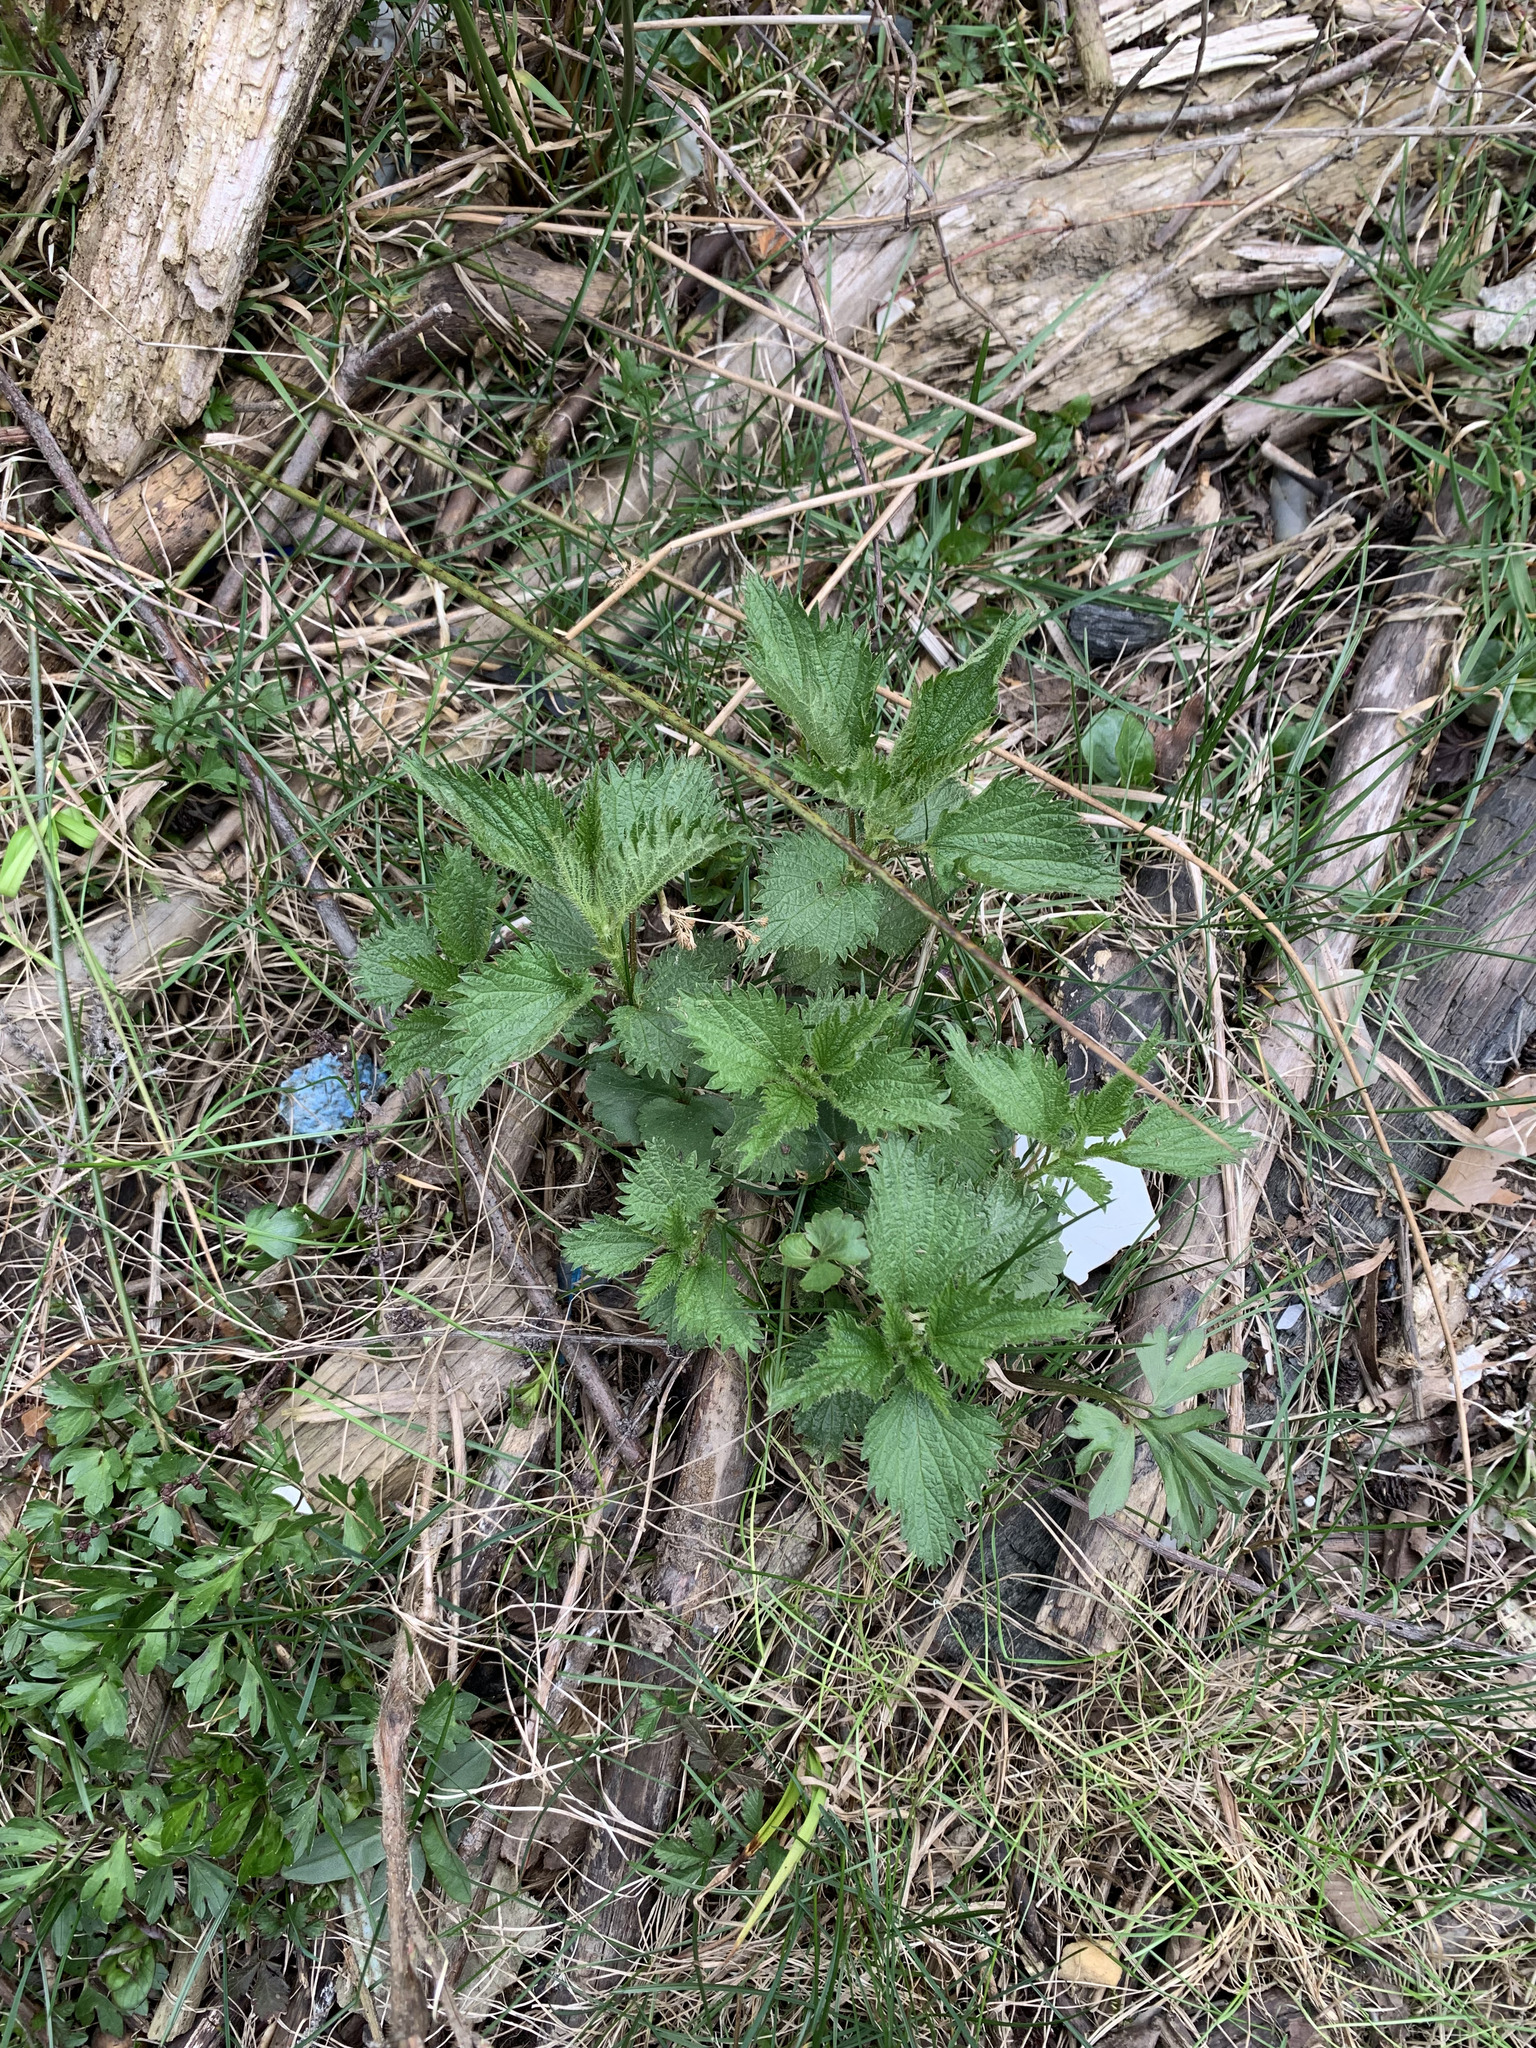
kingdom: Plantae
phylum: Tracheophyta
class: Magnoliopsida
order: Rosales
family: Urticaceae
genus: Urtica
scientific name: Urtica dioica
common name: Common nettle
